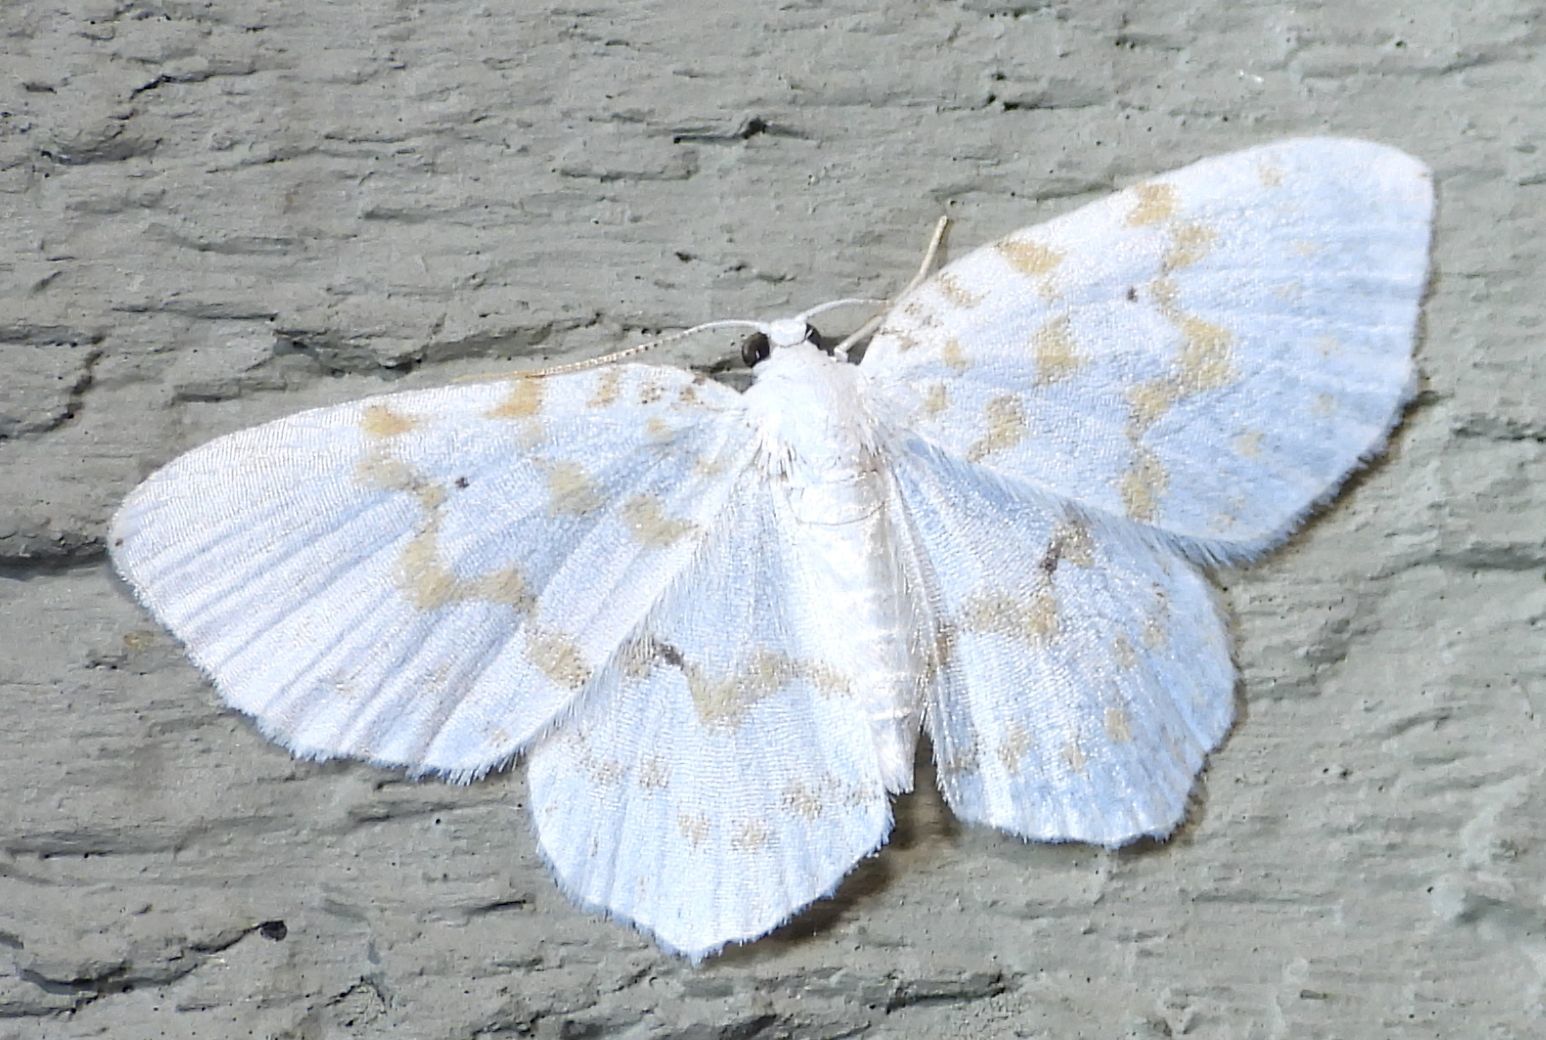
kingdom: Animalia
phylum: Arthropoda
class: Insecta
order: Lepidoptera
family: Geometridae
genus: Hydrelia
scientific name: Hydrelia albifera
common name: Fragile white carpet
